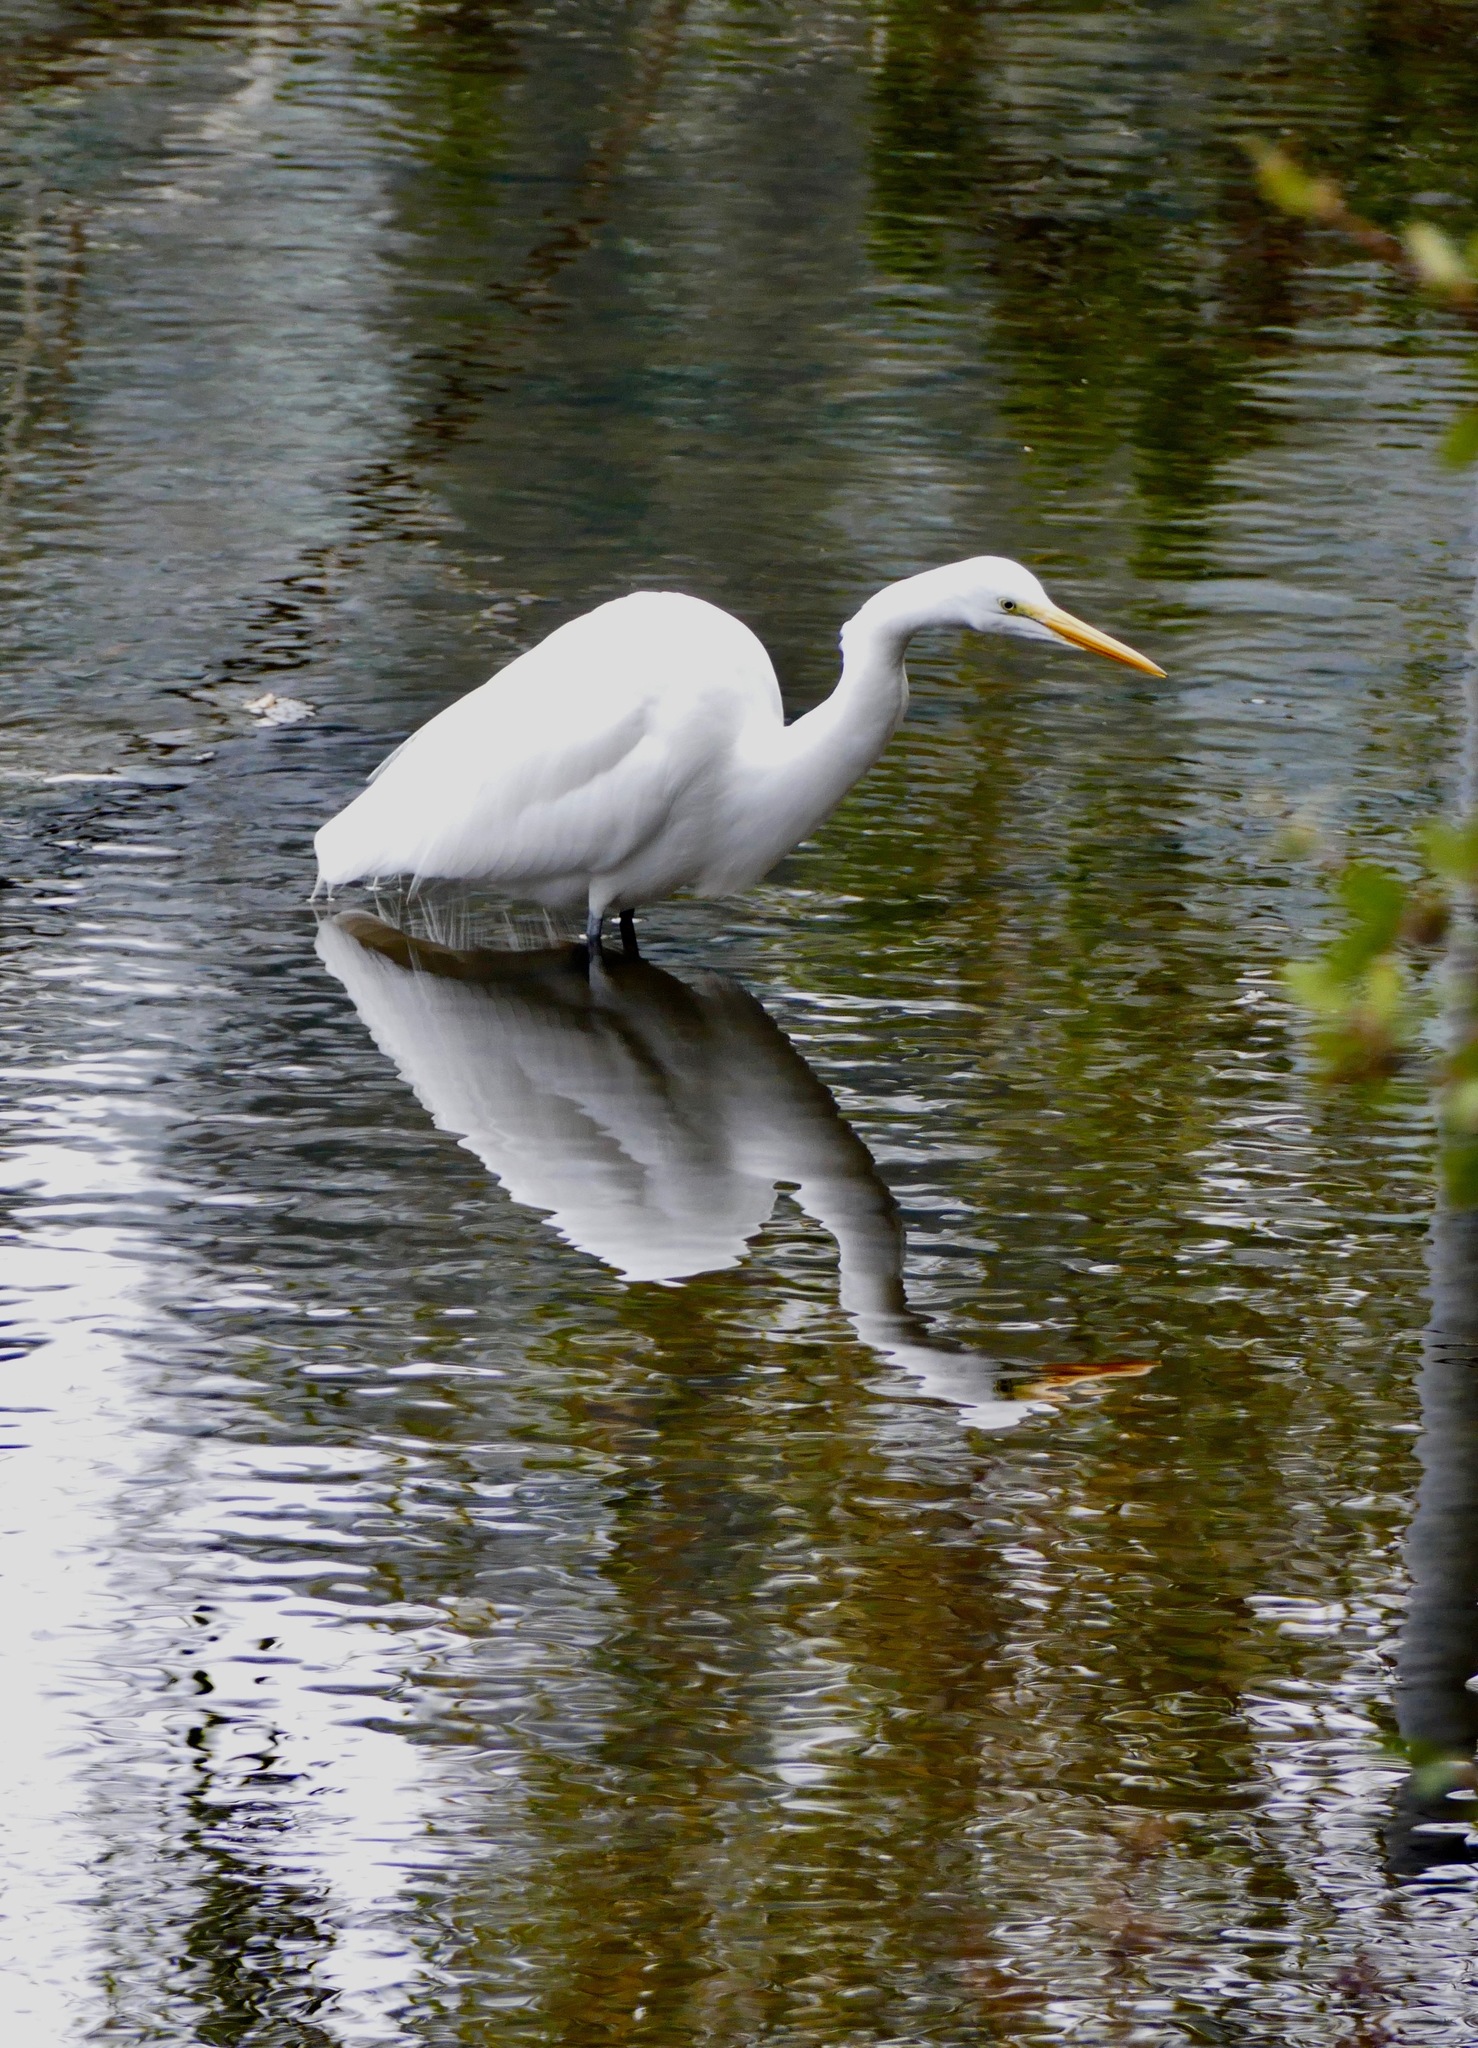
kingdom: Animalia
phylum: Chordata
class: Aves
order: Pelecaniformes
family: Ardeidae
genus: Ardea
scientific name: Ardea alba
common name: Great egret
